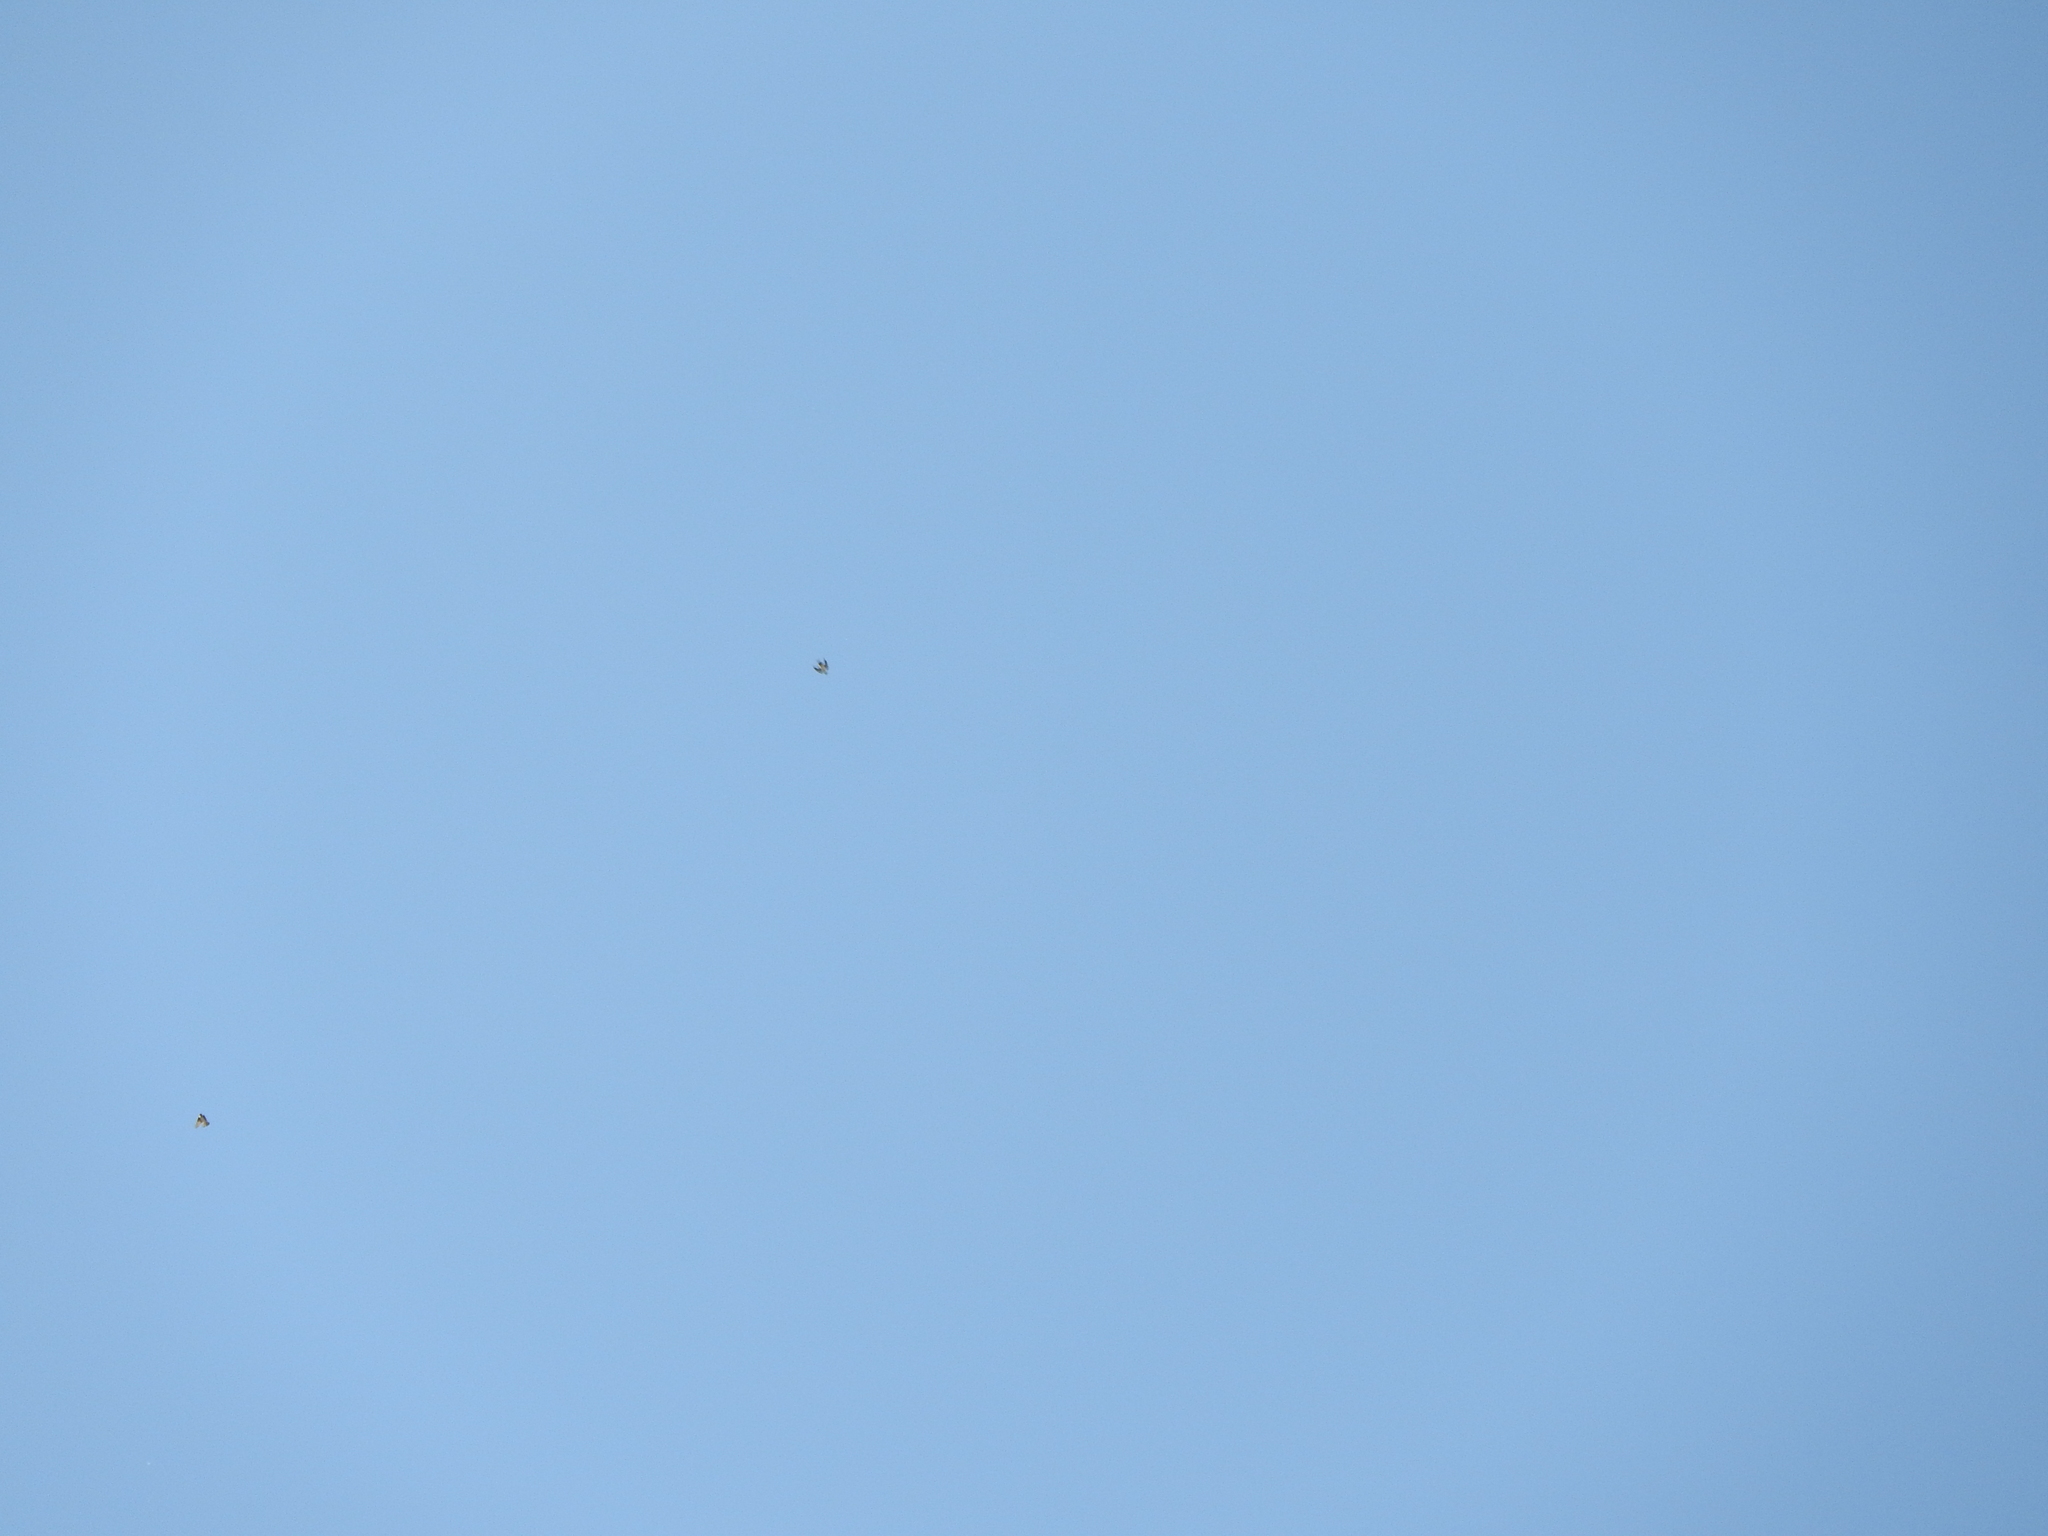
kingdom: Animalia
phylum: Chordata
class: Aves
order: Passeriformes
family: Hirundinidae
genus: Hirundo
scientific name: Hirundo rustica
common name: Barn swallow
